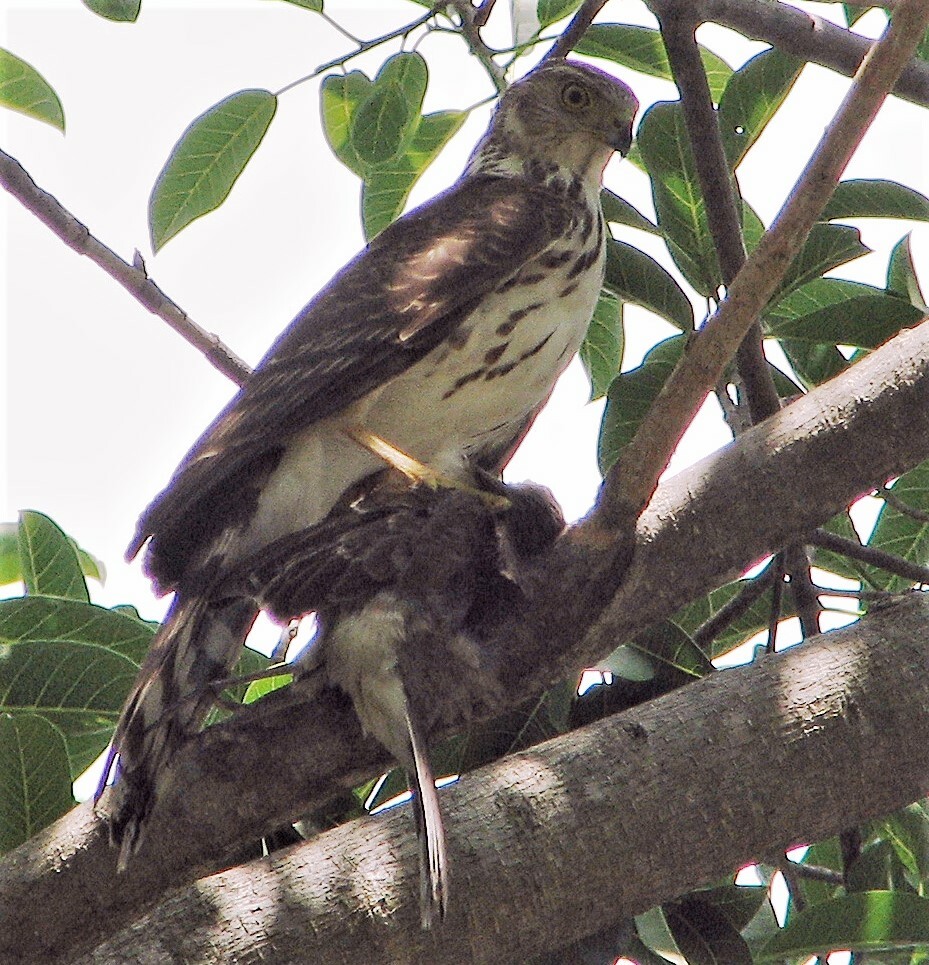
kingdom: Animalia
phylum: Chordata
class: Aves
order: Accipitriformes
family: Accipitridae
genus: Accipiter
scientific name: Accipiter bicolor
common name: Bicolored hawk
